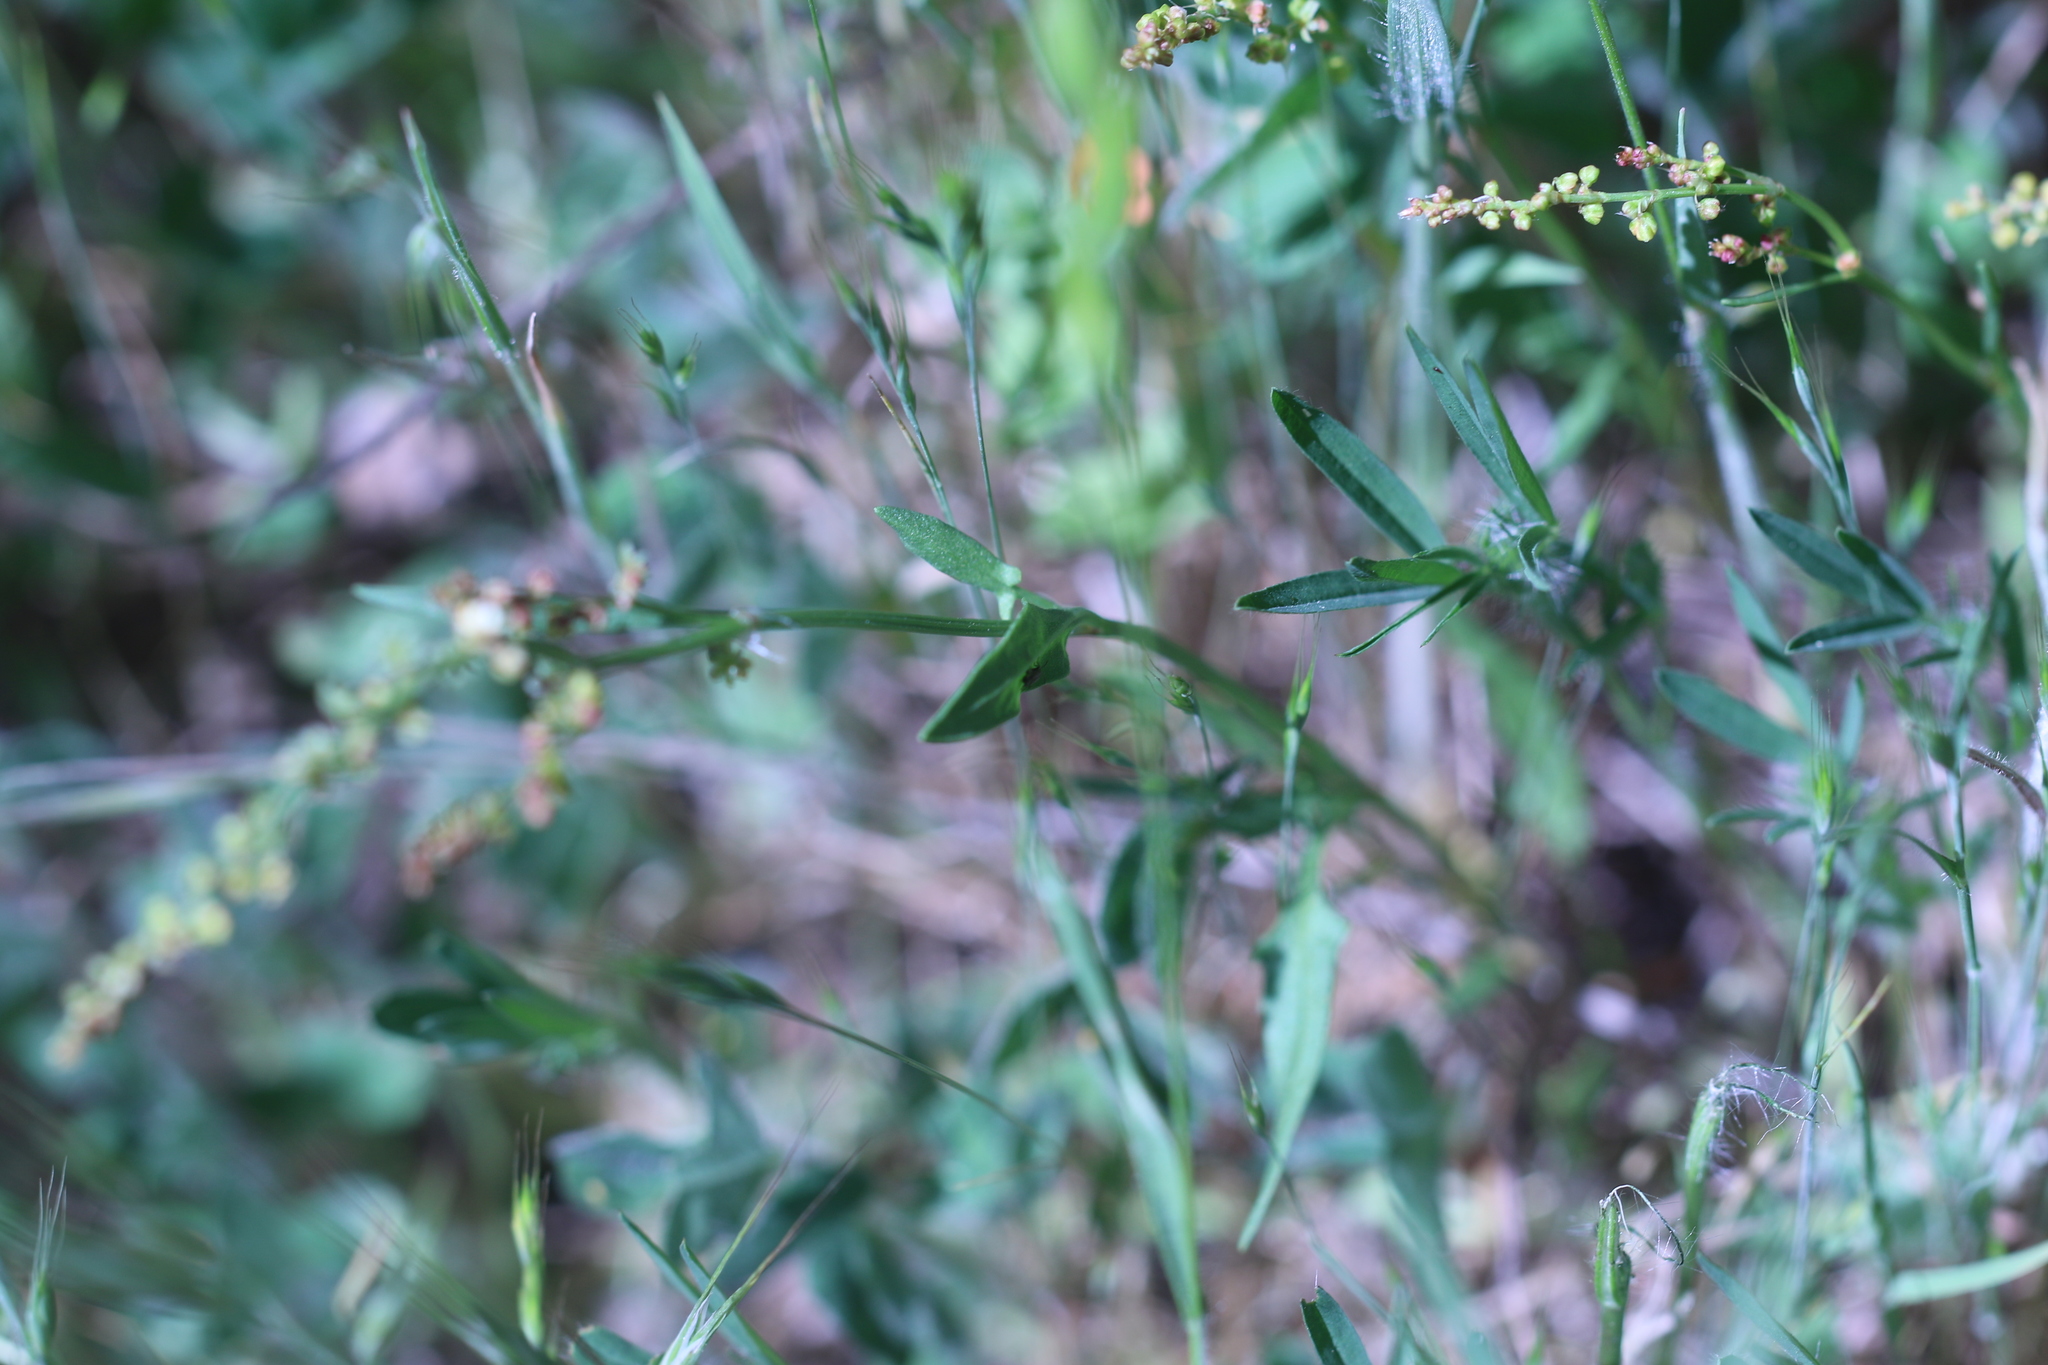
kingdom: Plantae
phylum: Tracheophyta
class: Magnoliopsida
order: Caryophyllales
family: Polygonaceae
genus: Rumex
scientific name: Rumex acetosella
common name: Common sheep sorrel
